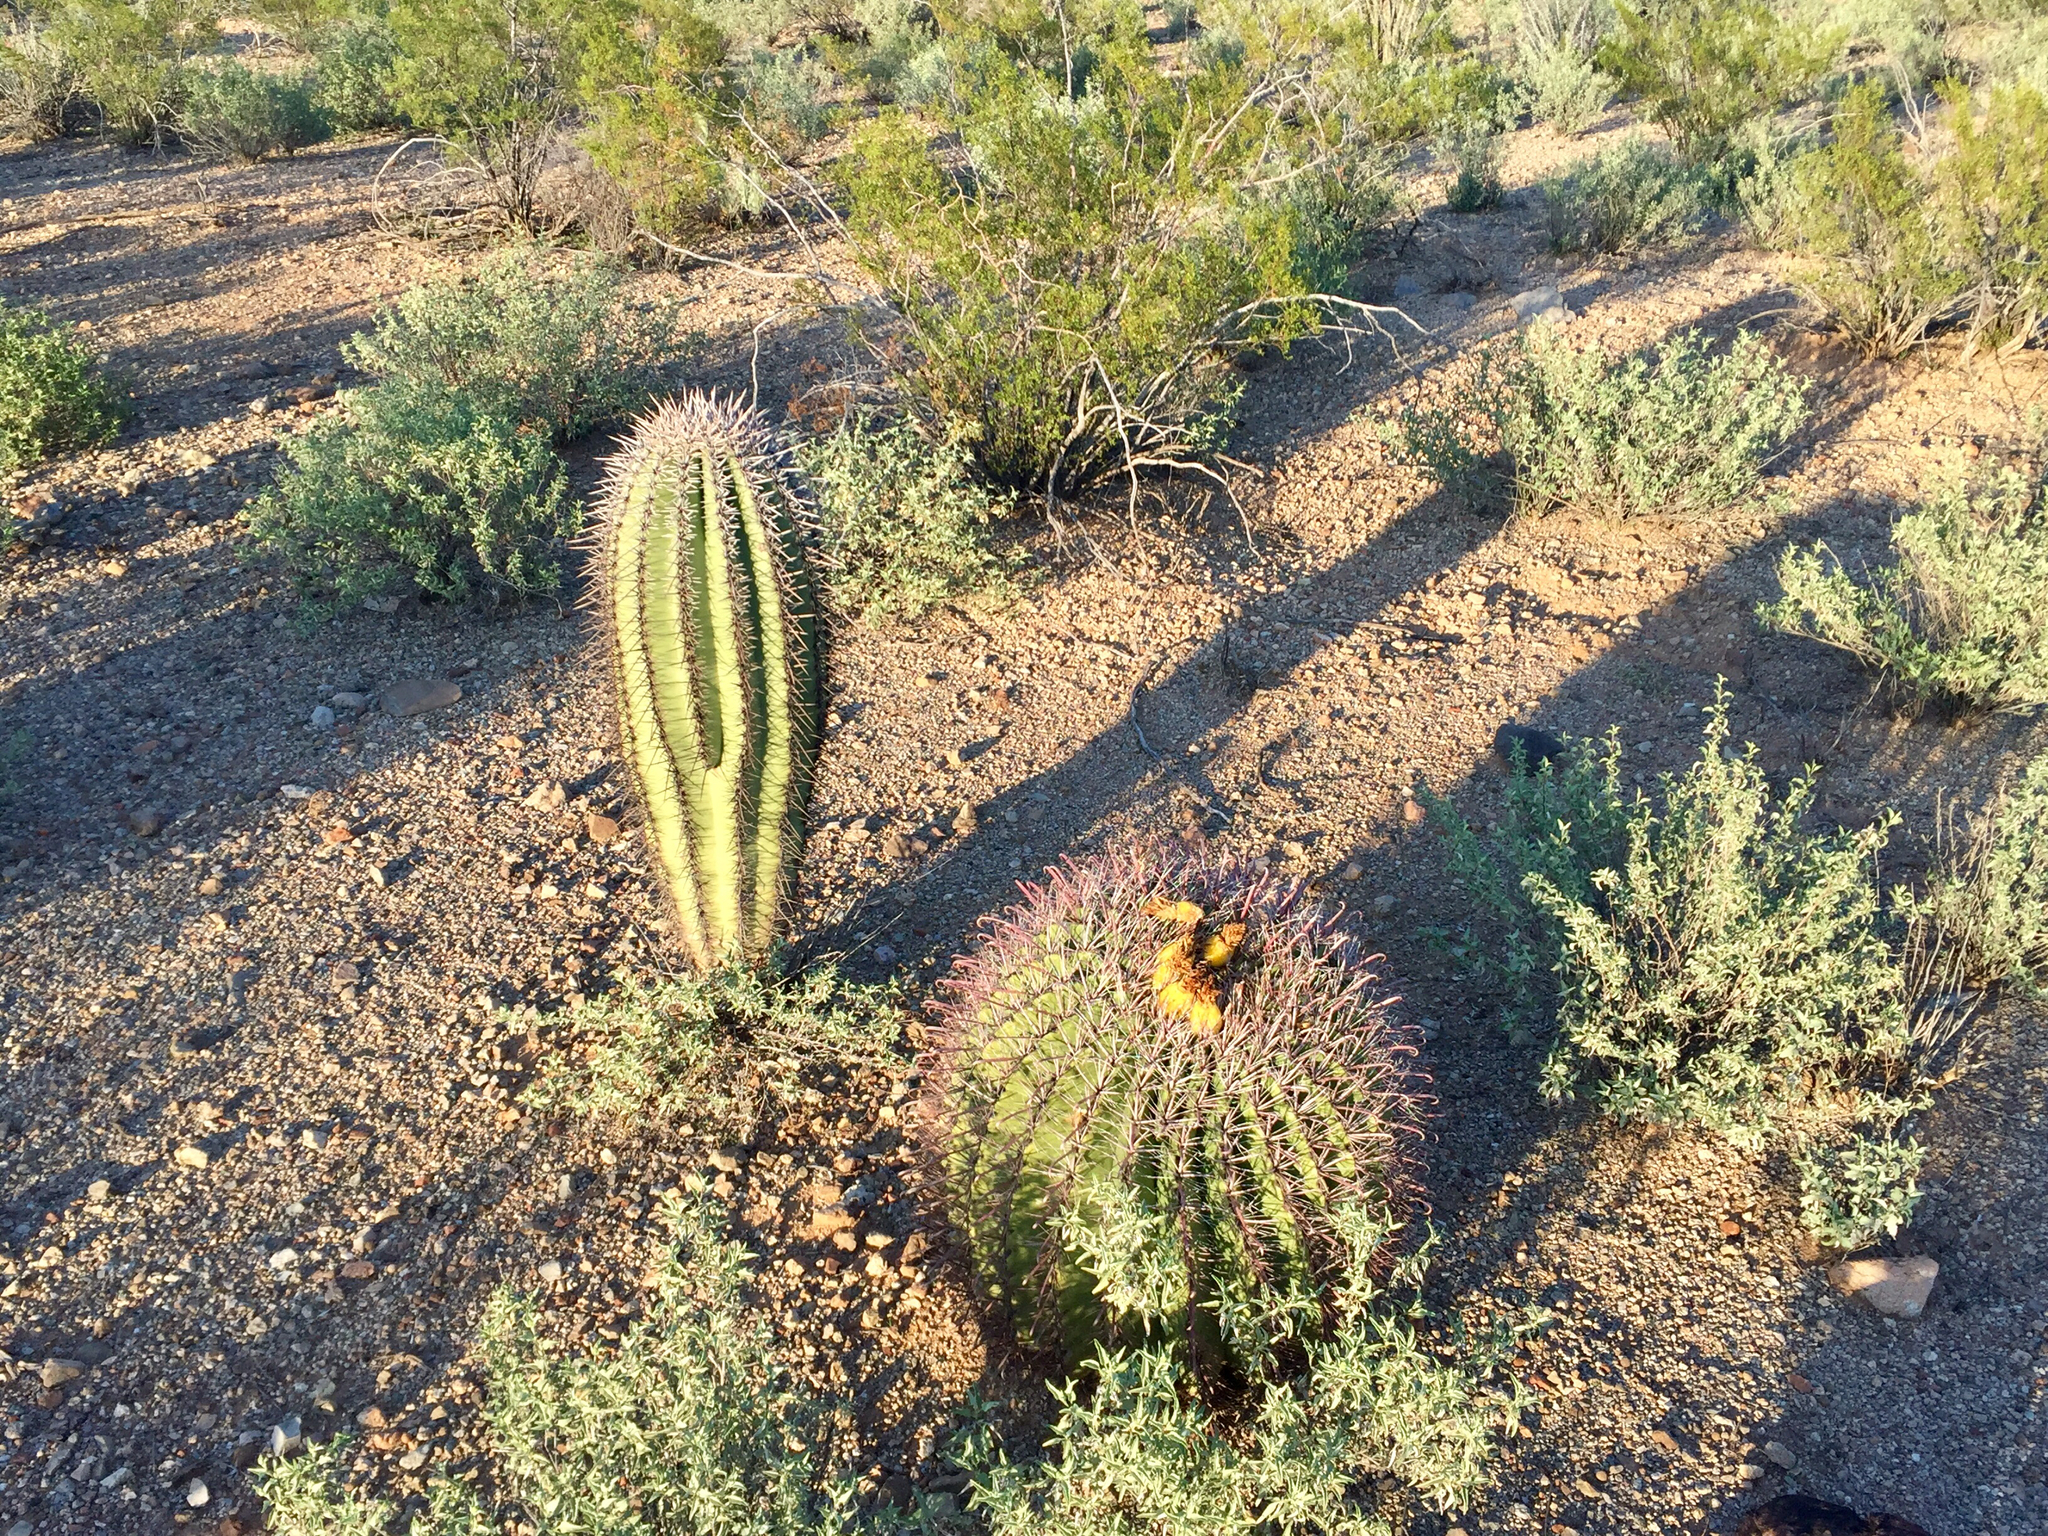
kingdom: Plantae
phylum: Tracheophyta
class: Magnoliopsida
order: Caryophyllales
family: Cactaceae
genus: Ferocactus
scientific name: Ferocactus wislizeni
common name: Candy barrel cactus
